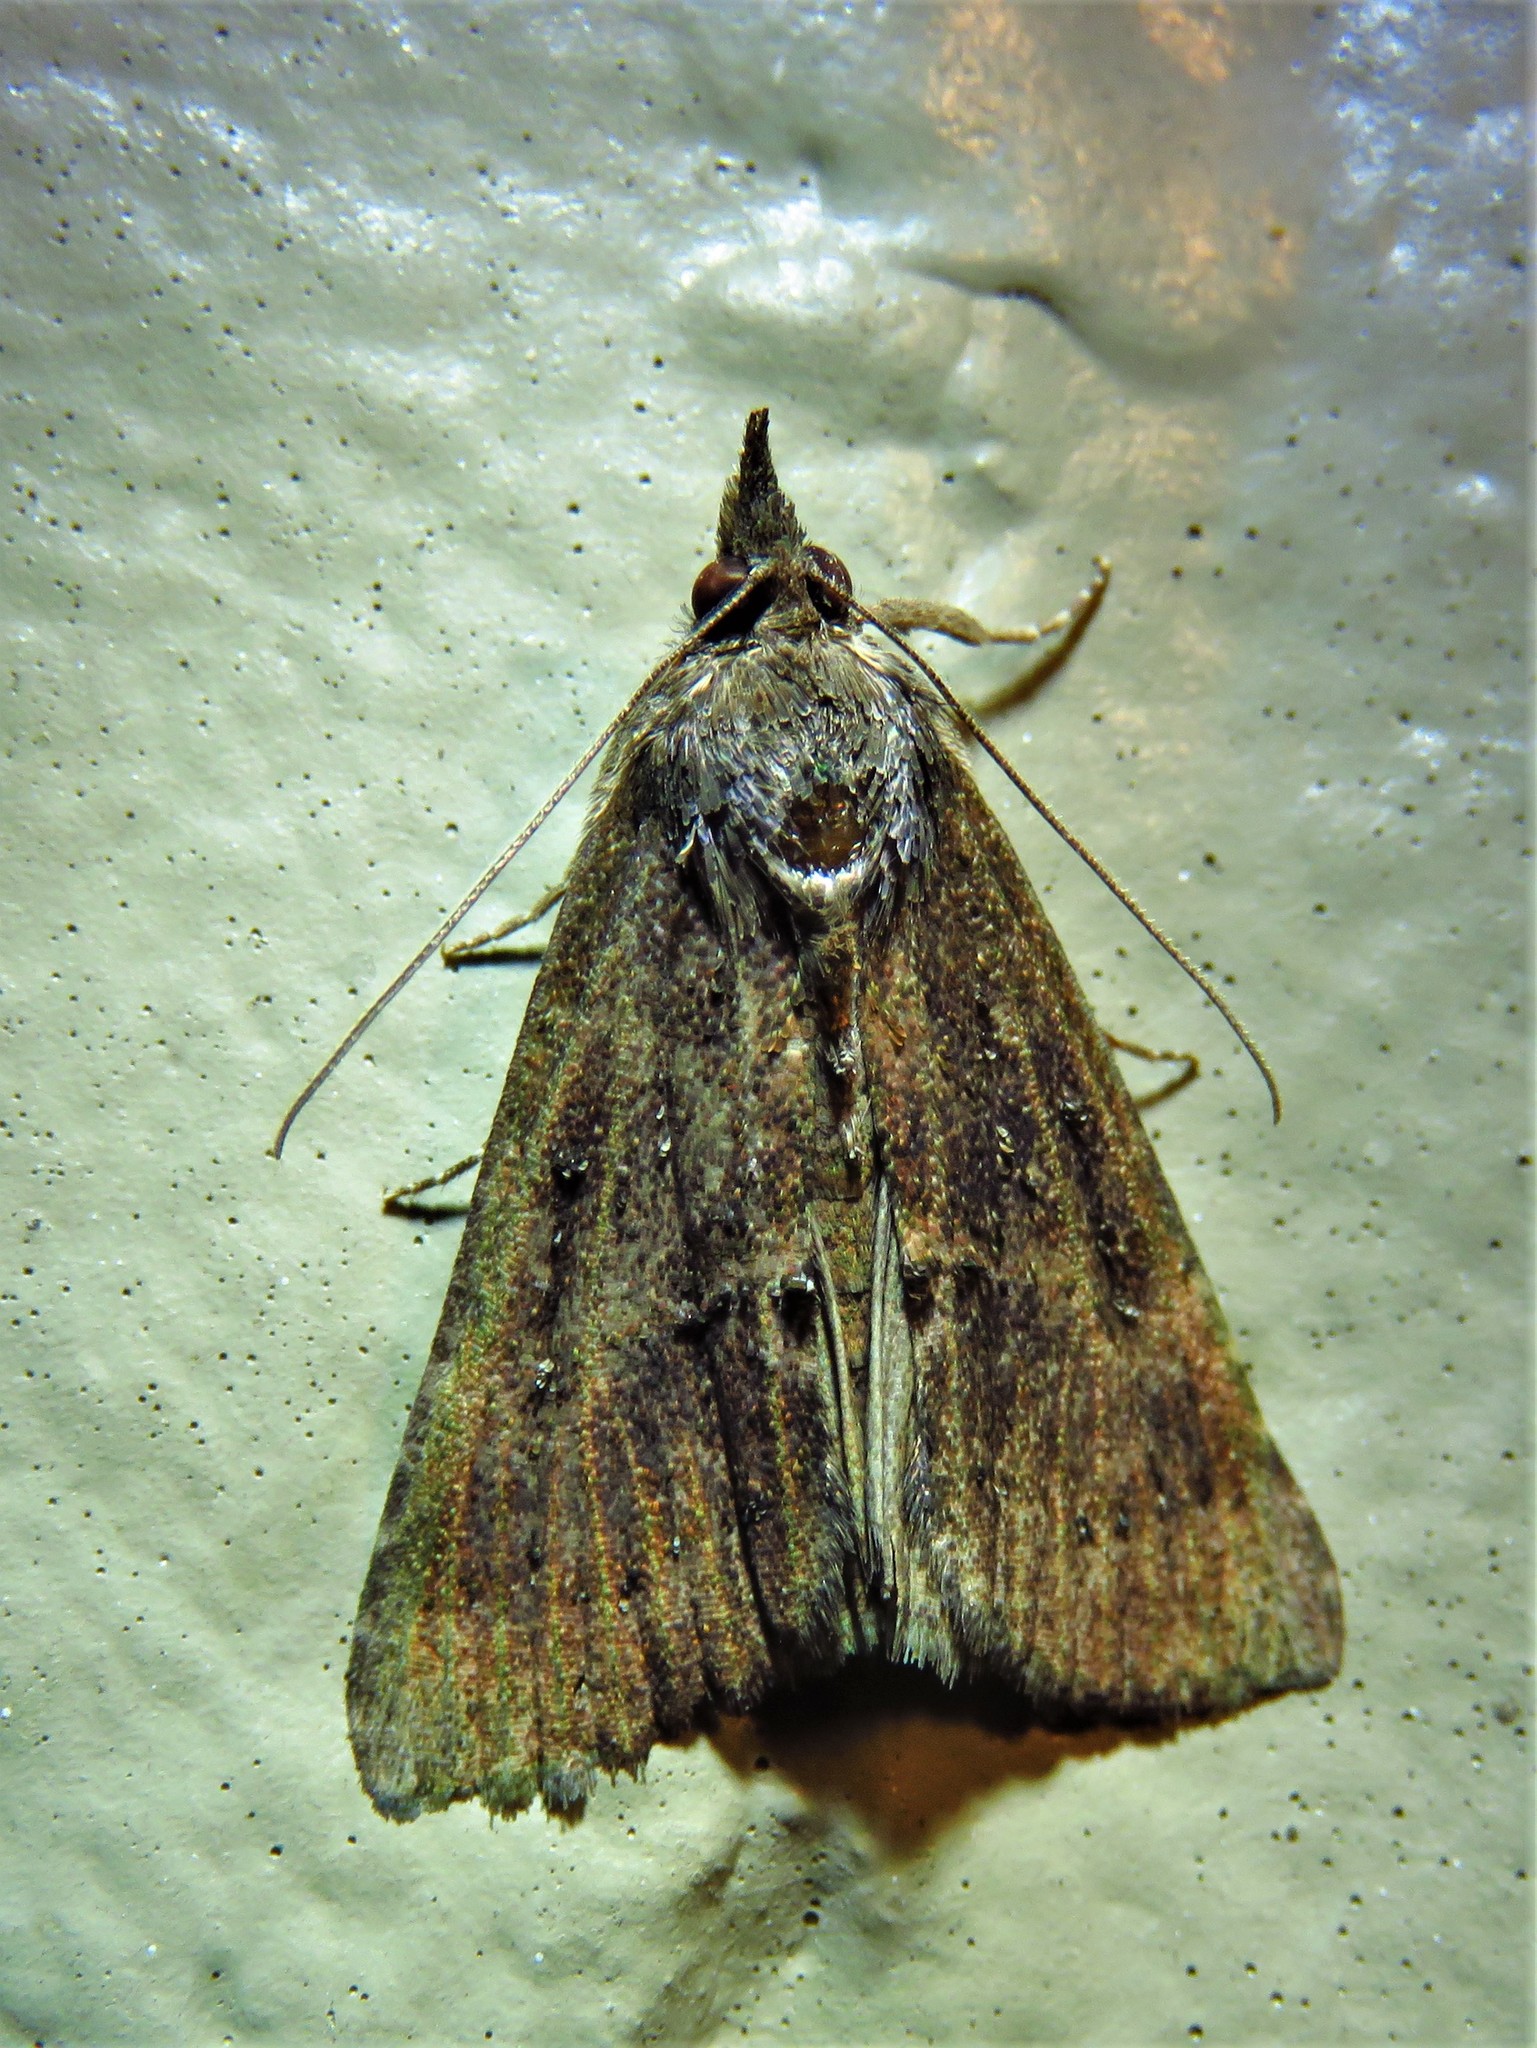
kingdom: Animalia
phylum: Arthropoda
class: Insecta
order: Lepidoptera
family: Erebidae
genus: Hypena
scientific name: Hypena scabra
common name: Green cloverworm
